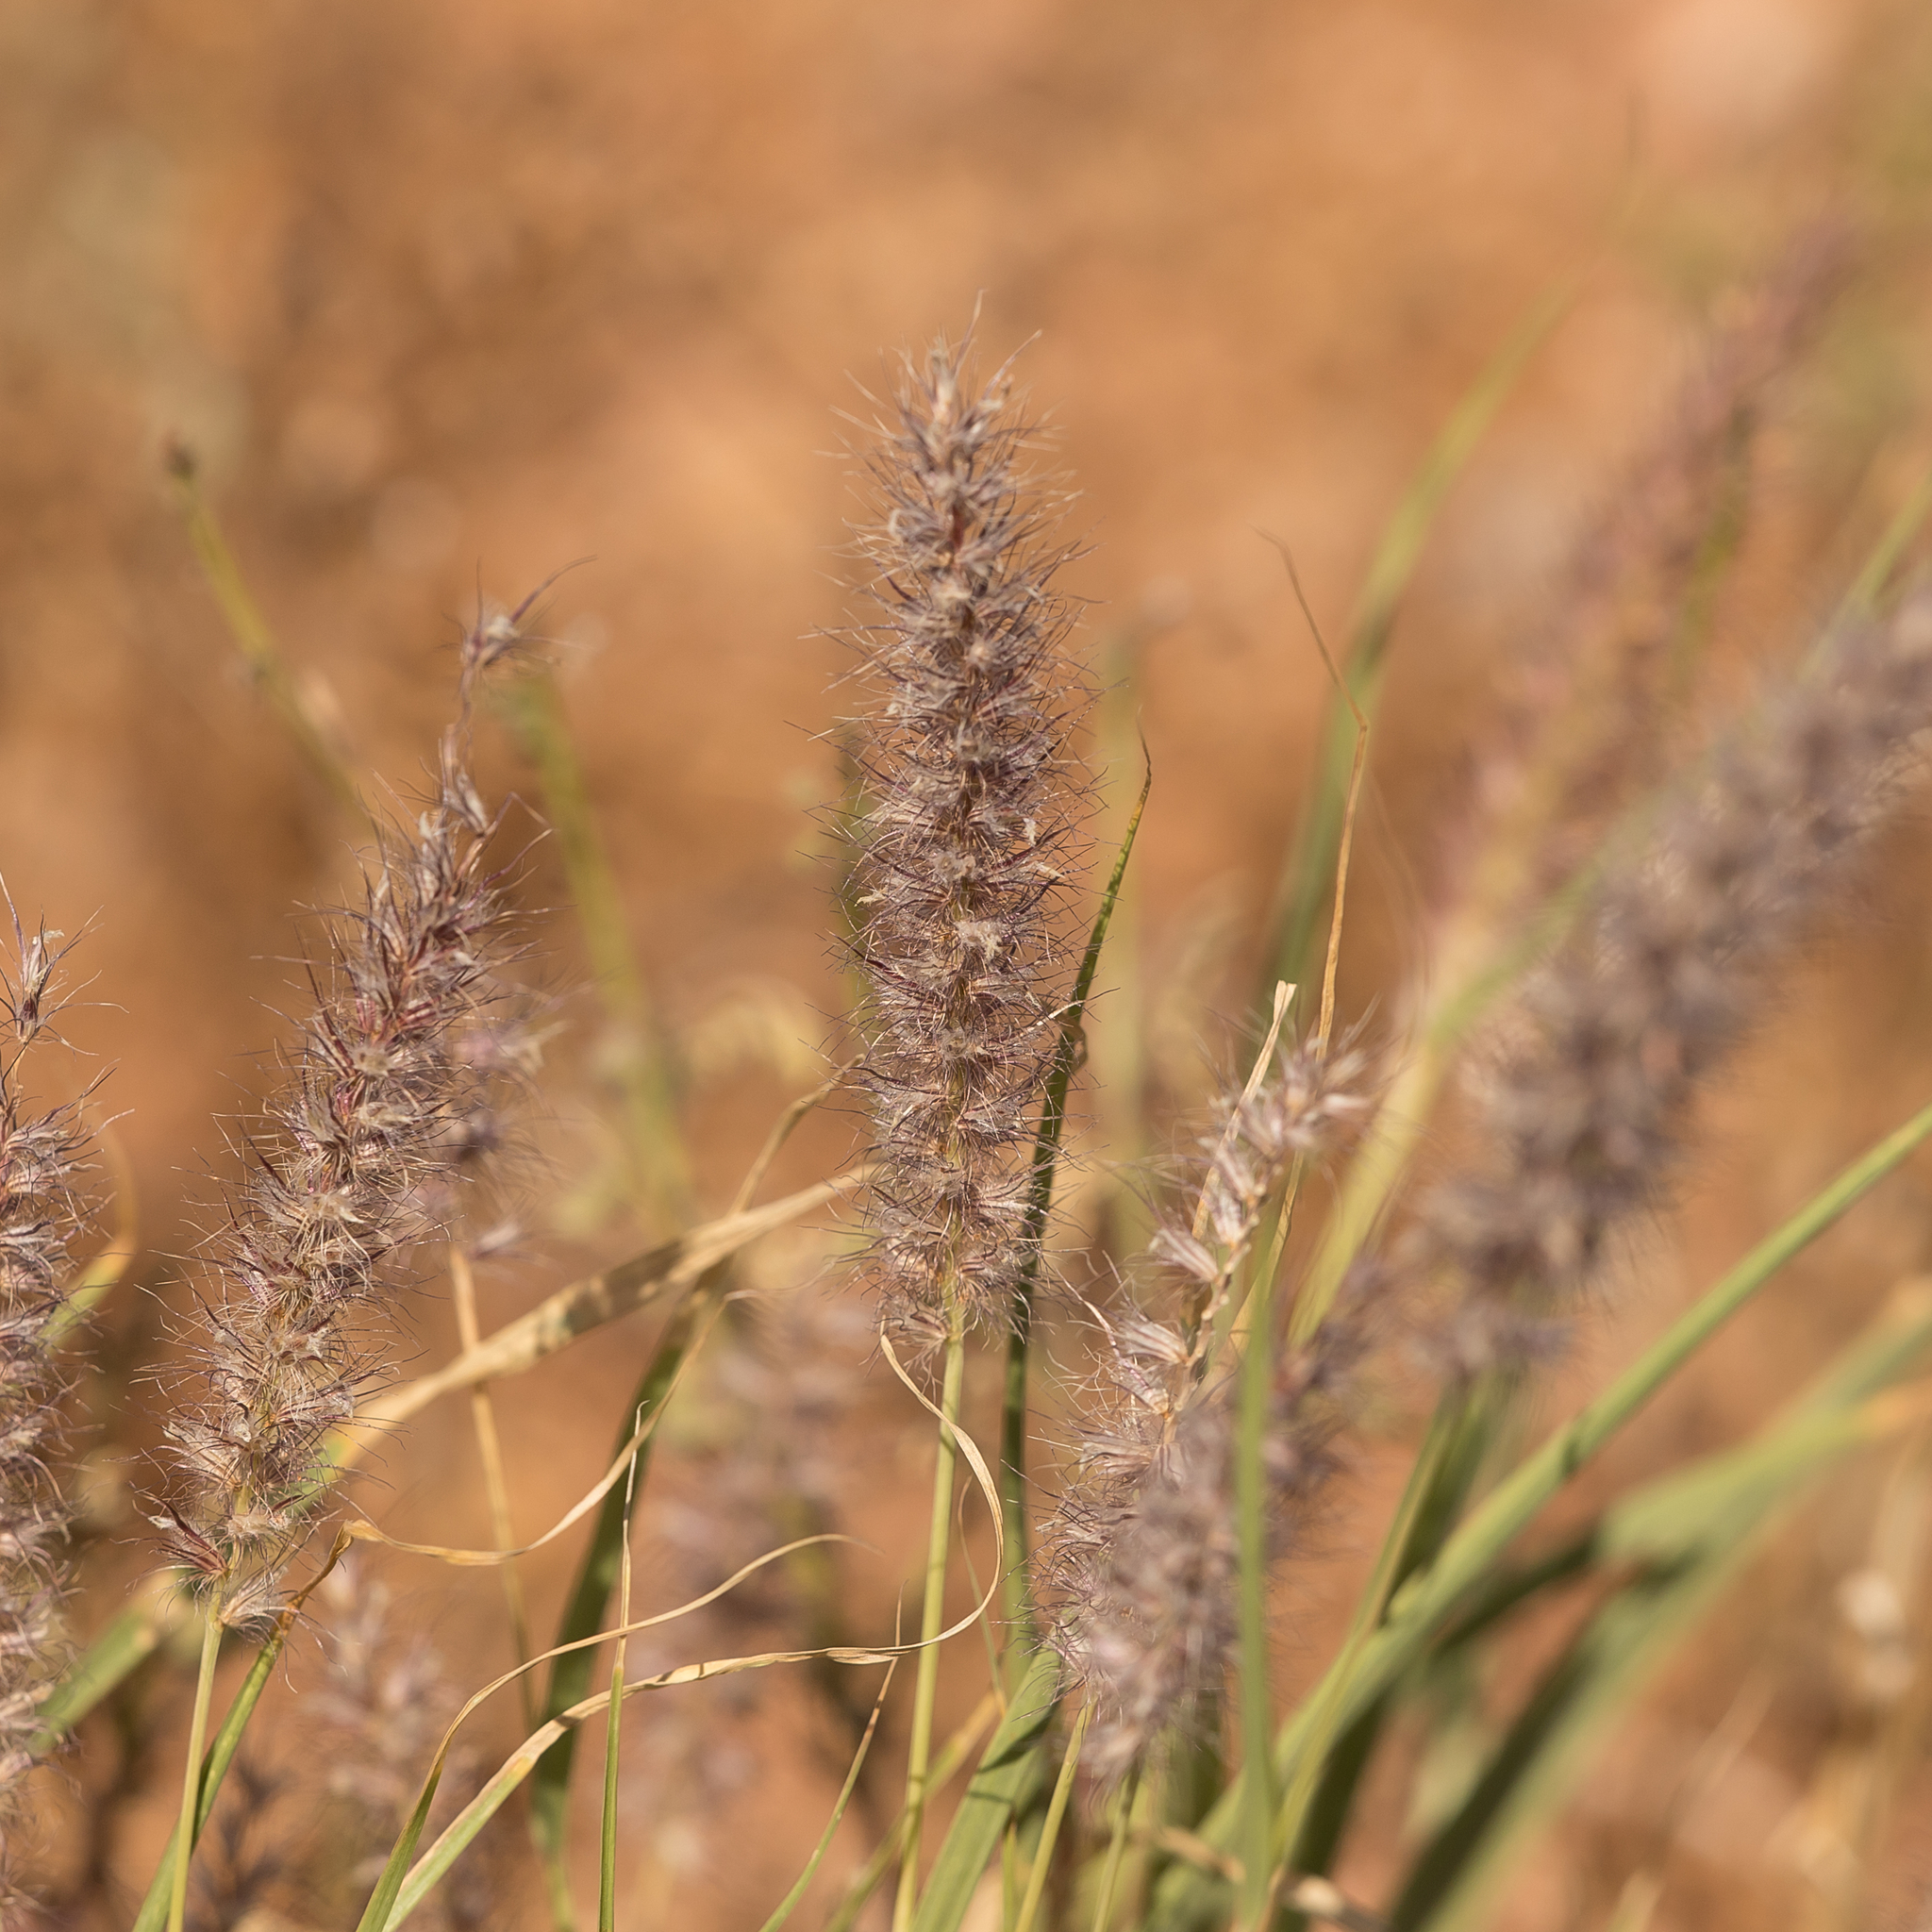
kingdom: Plantae
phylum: Tracheophyta
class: Liliopsida
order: Poales
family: Poaceae
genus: Cenchrus
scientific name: Cenchrus ciliaris
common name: Buffelgrass
